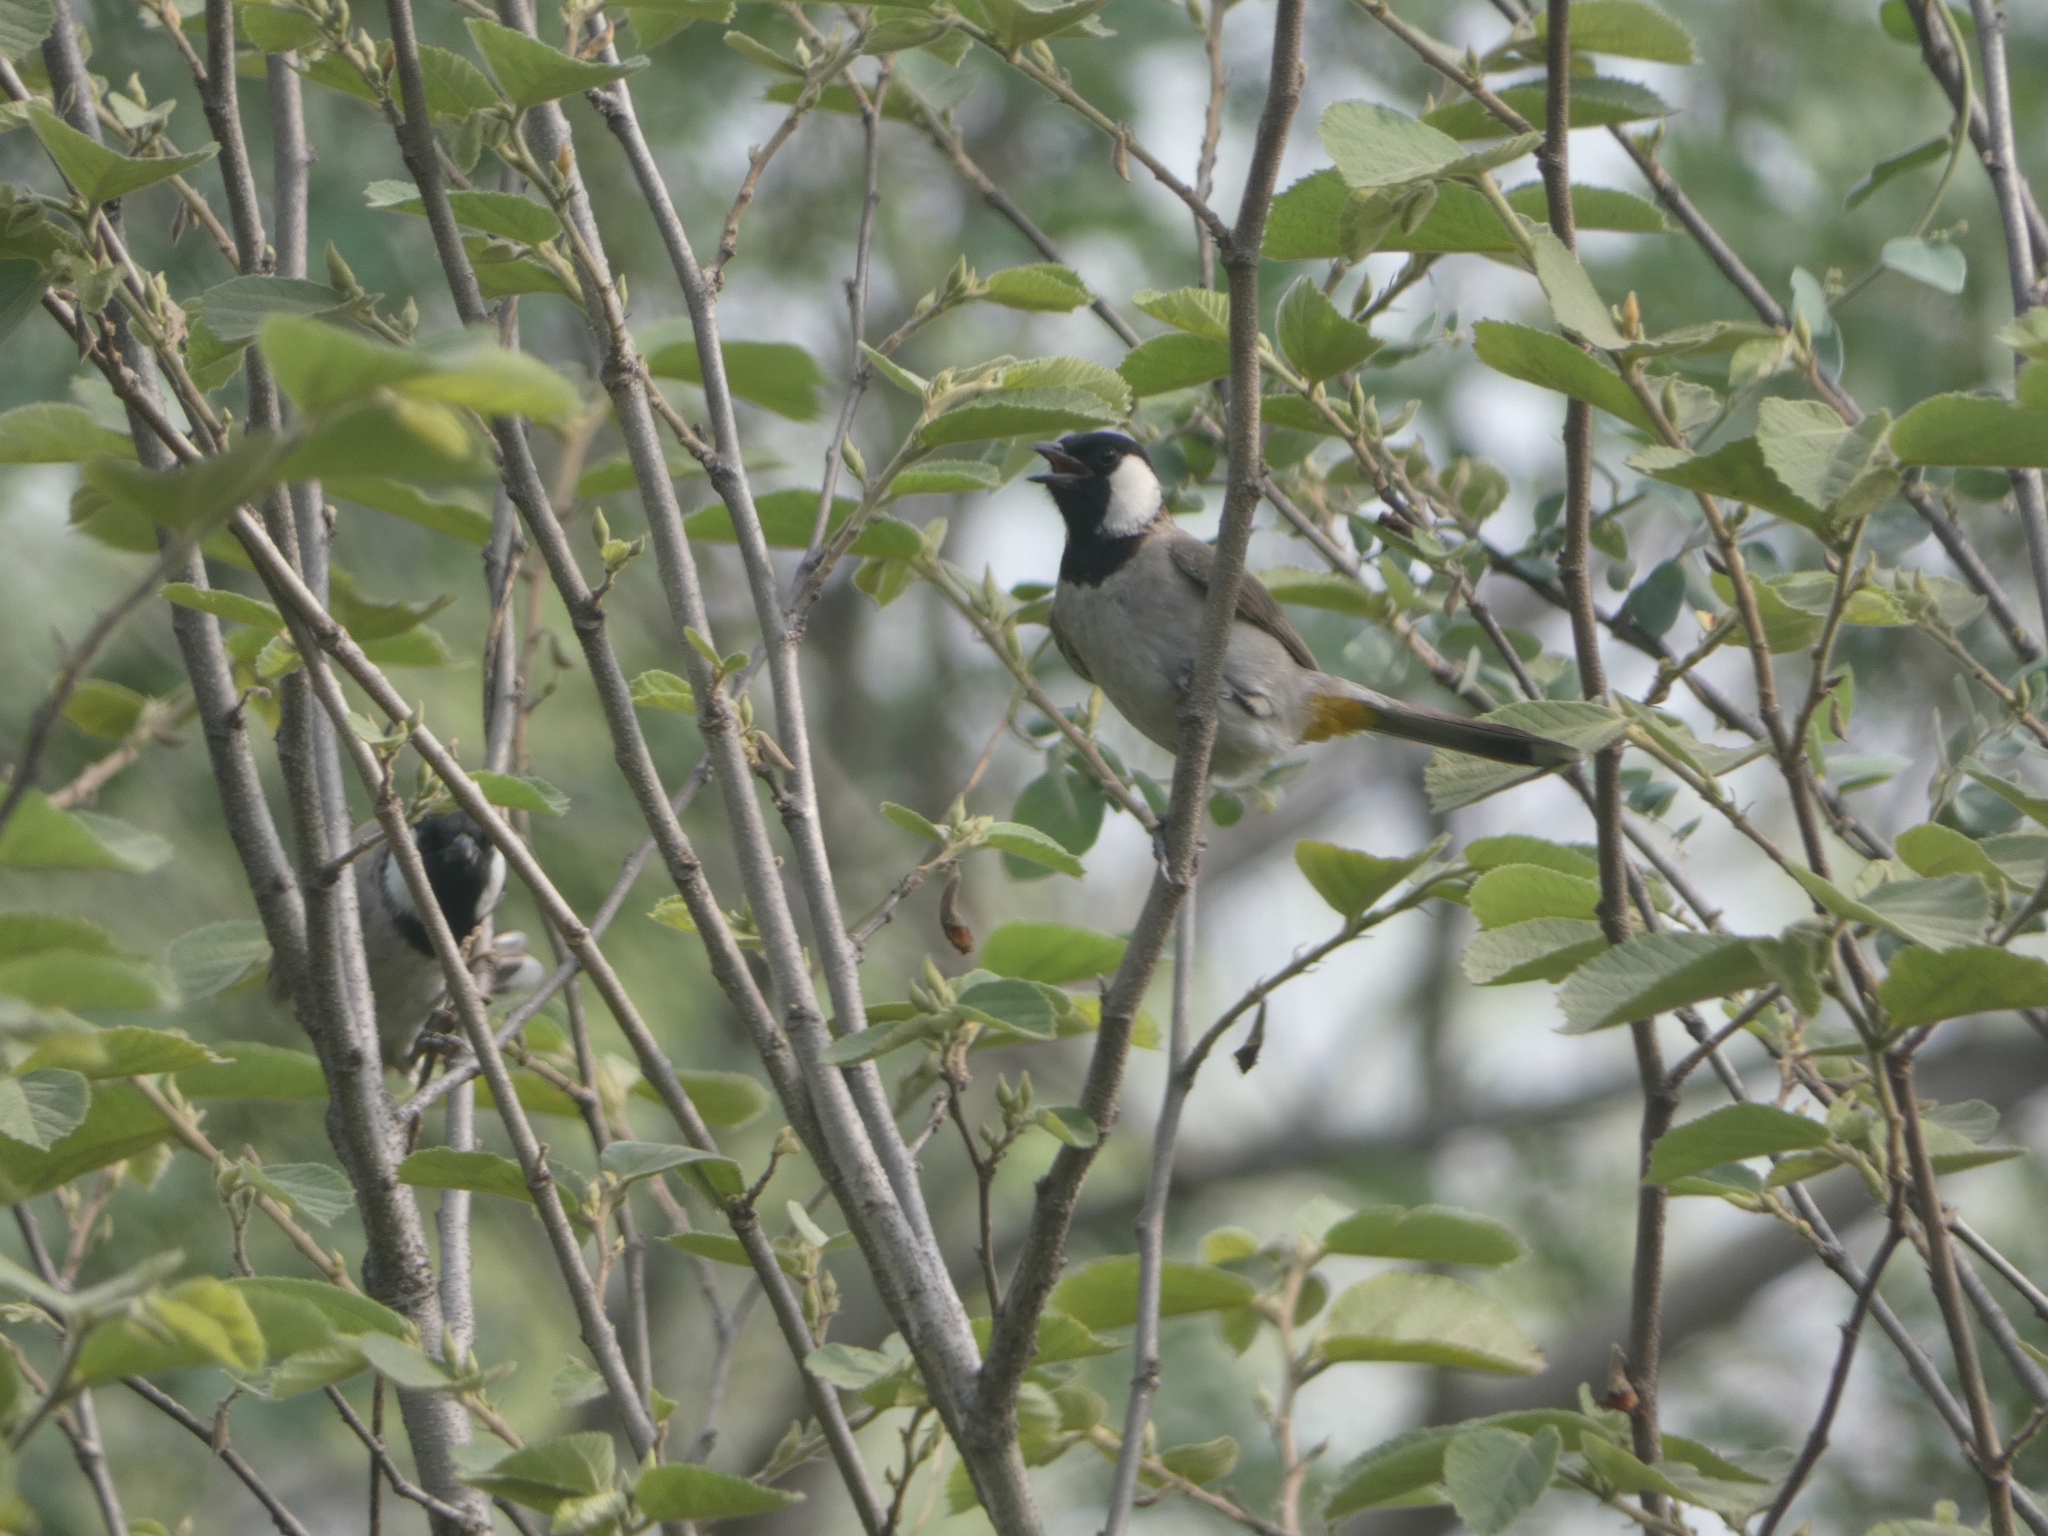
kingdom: Animalia
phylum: Chordata
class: Aves
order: Passeriformes
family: Pycnonotidae
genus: Pycnonotus
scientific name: Pycnonotus leucotis
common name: White-eared bulbul
